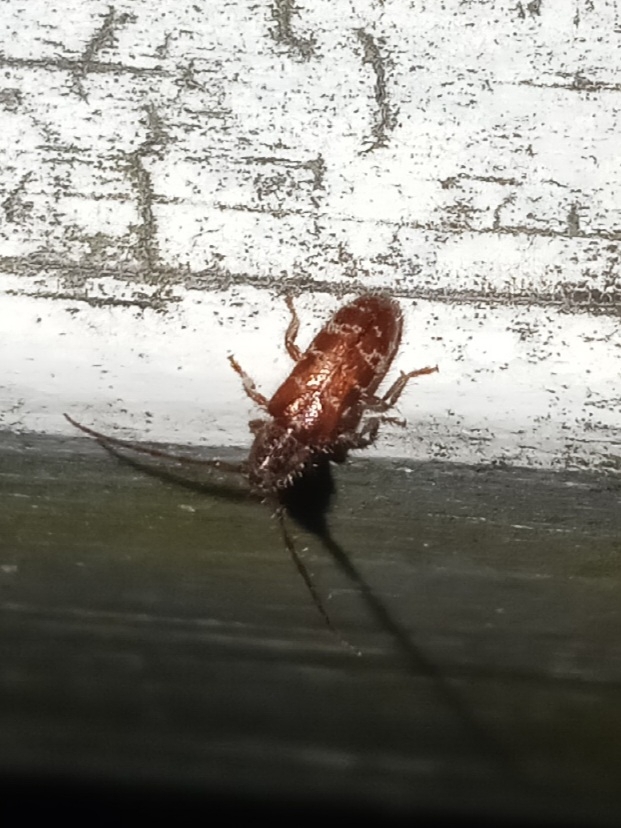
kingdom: Animalia
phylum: Arthropoda
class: Insecta
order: Coleoptera
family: Cerambycidae
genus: Eupogonius
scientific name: Eupogonius tomentosus
